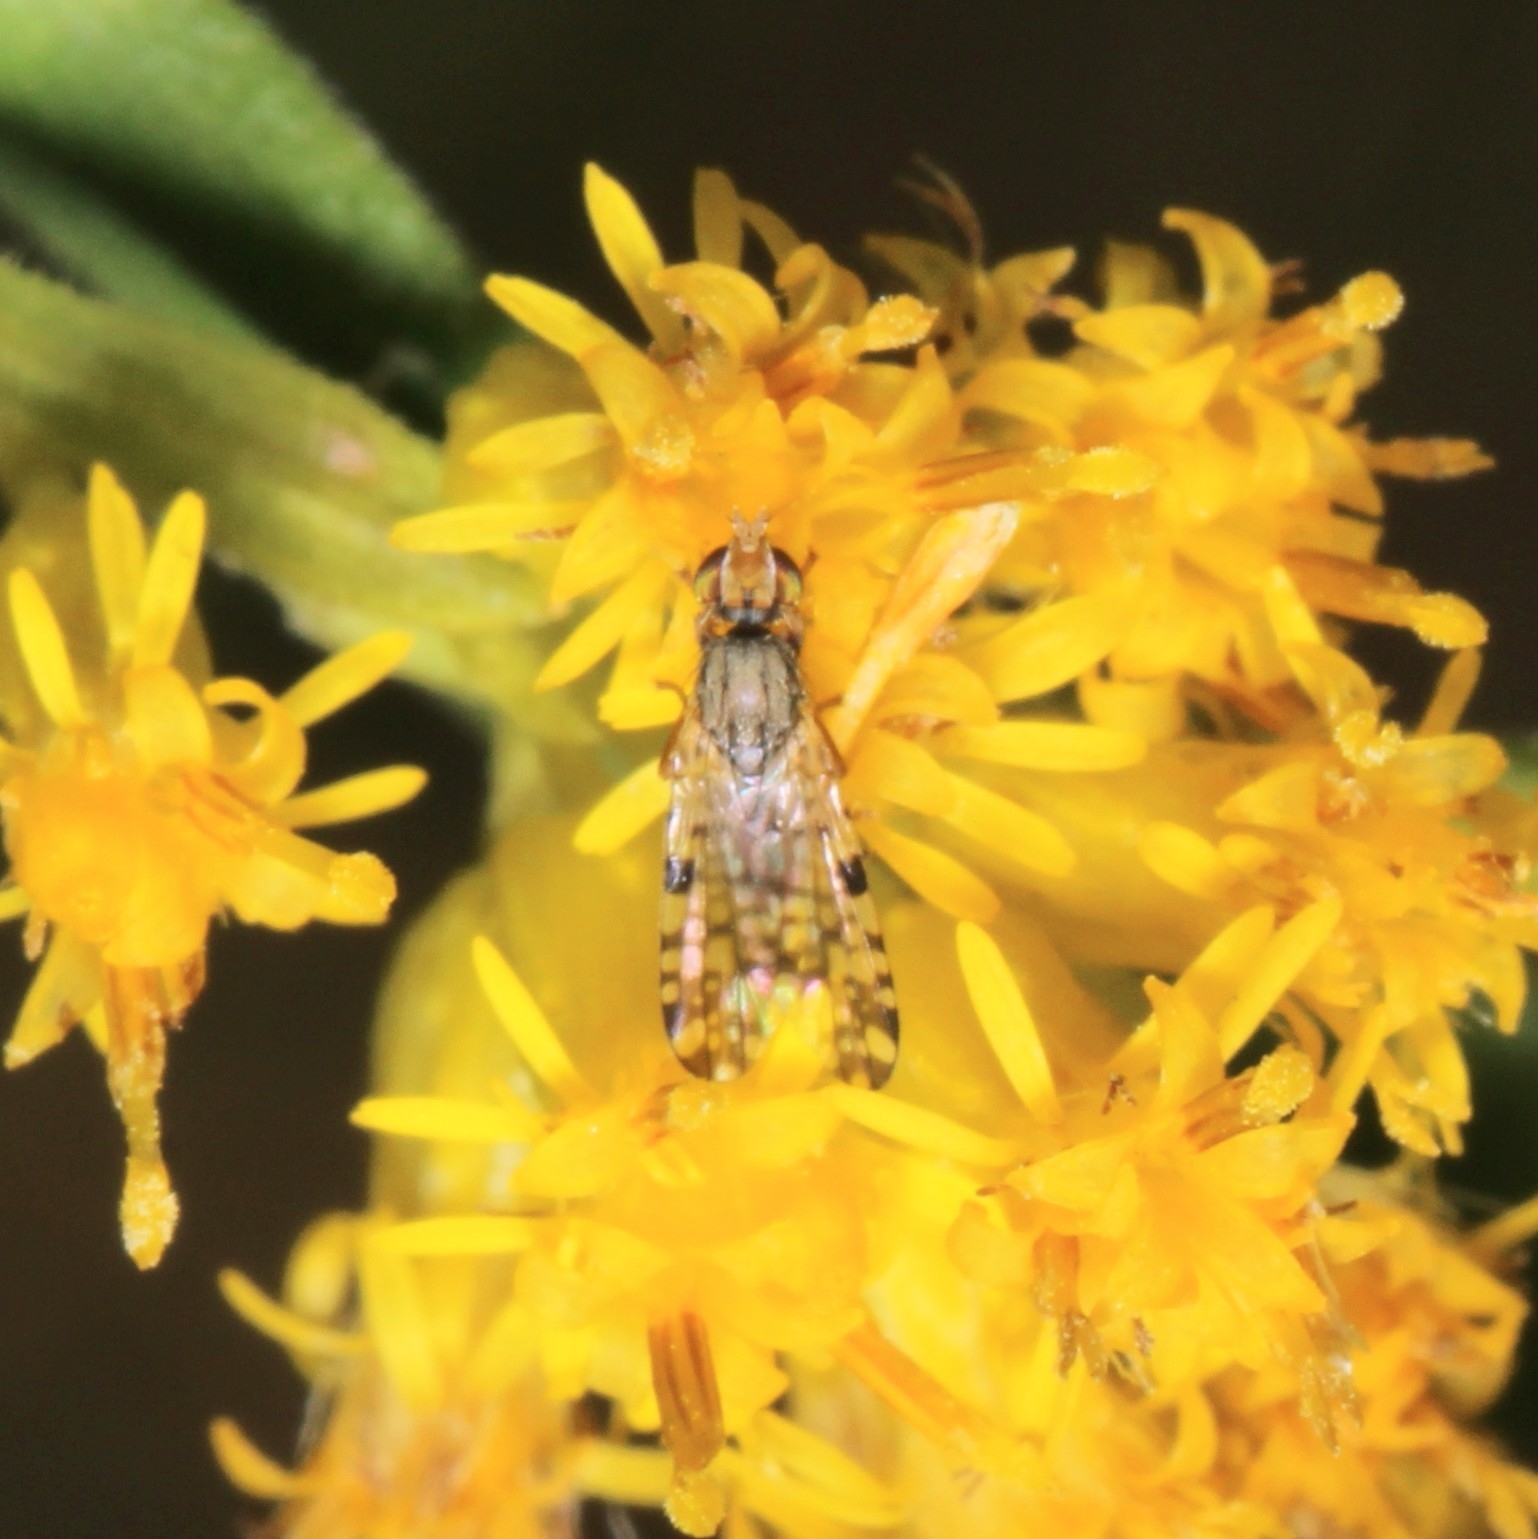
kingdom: Animalia
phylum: Arthropoda
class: Insecta
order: Diptera
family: Tephritidae
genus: Dioxyna
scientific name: Dioxyna picciola
